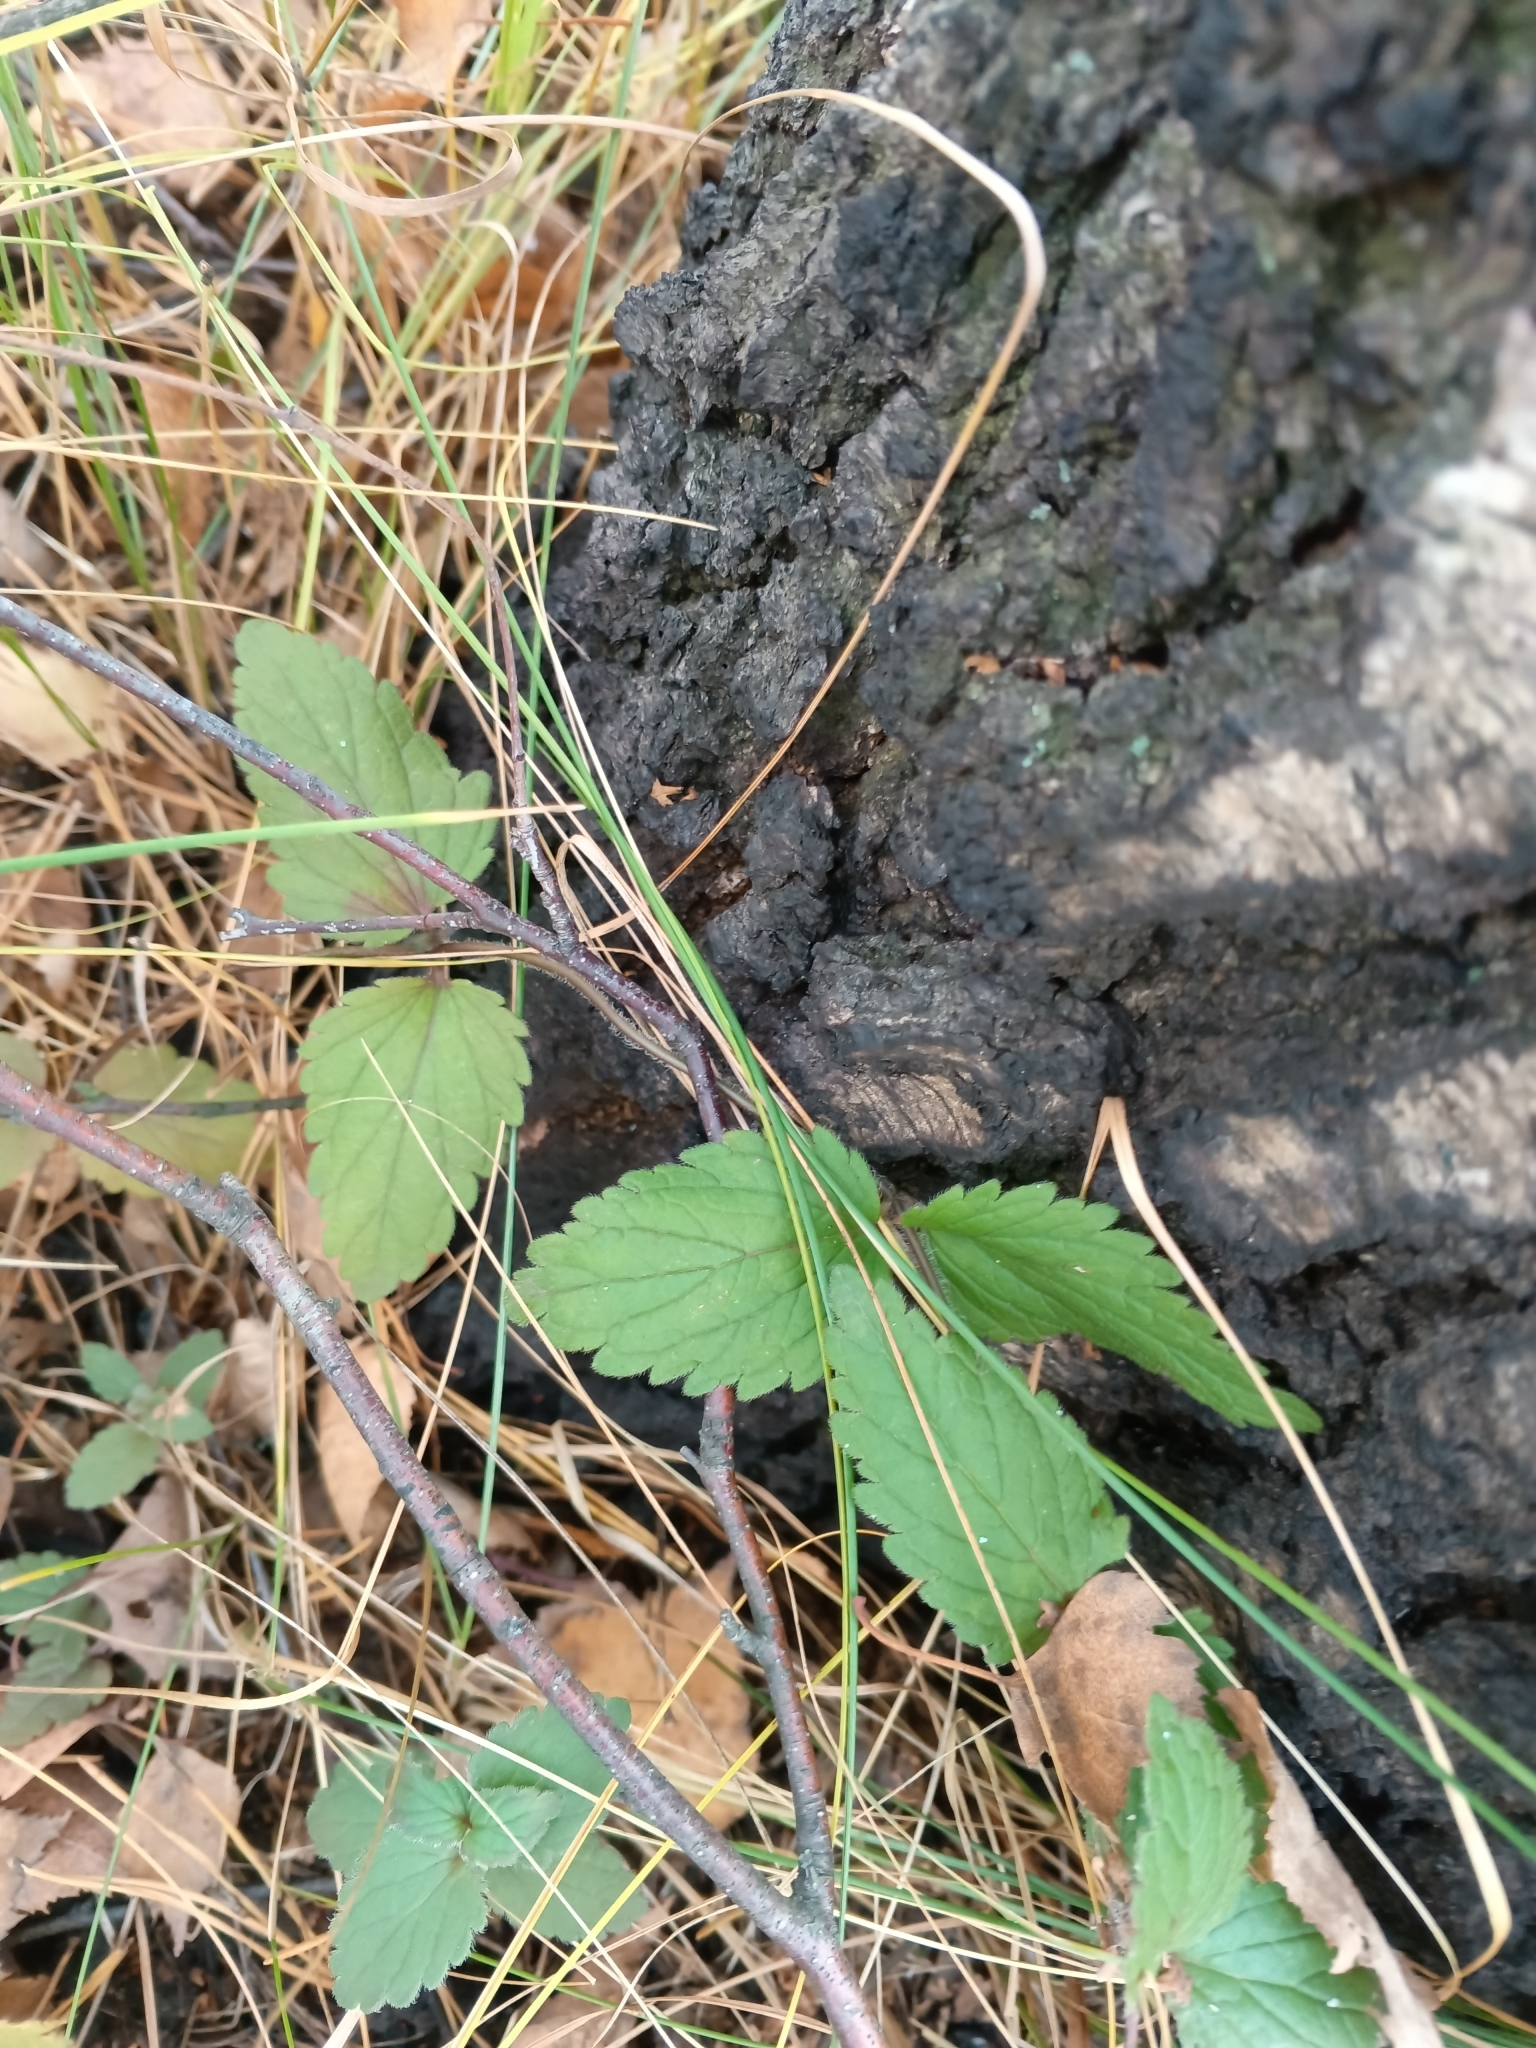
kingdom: Plantae
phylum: Tracheophyta
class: Magnoliopsida
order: Lamiales
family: Plantaginaceae
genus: Veronica
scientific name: Veronica chamaedrys
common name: Germander speedwell
